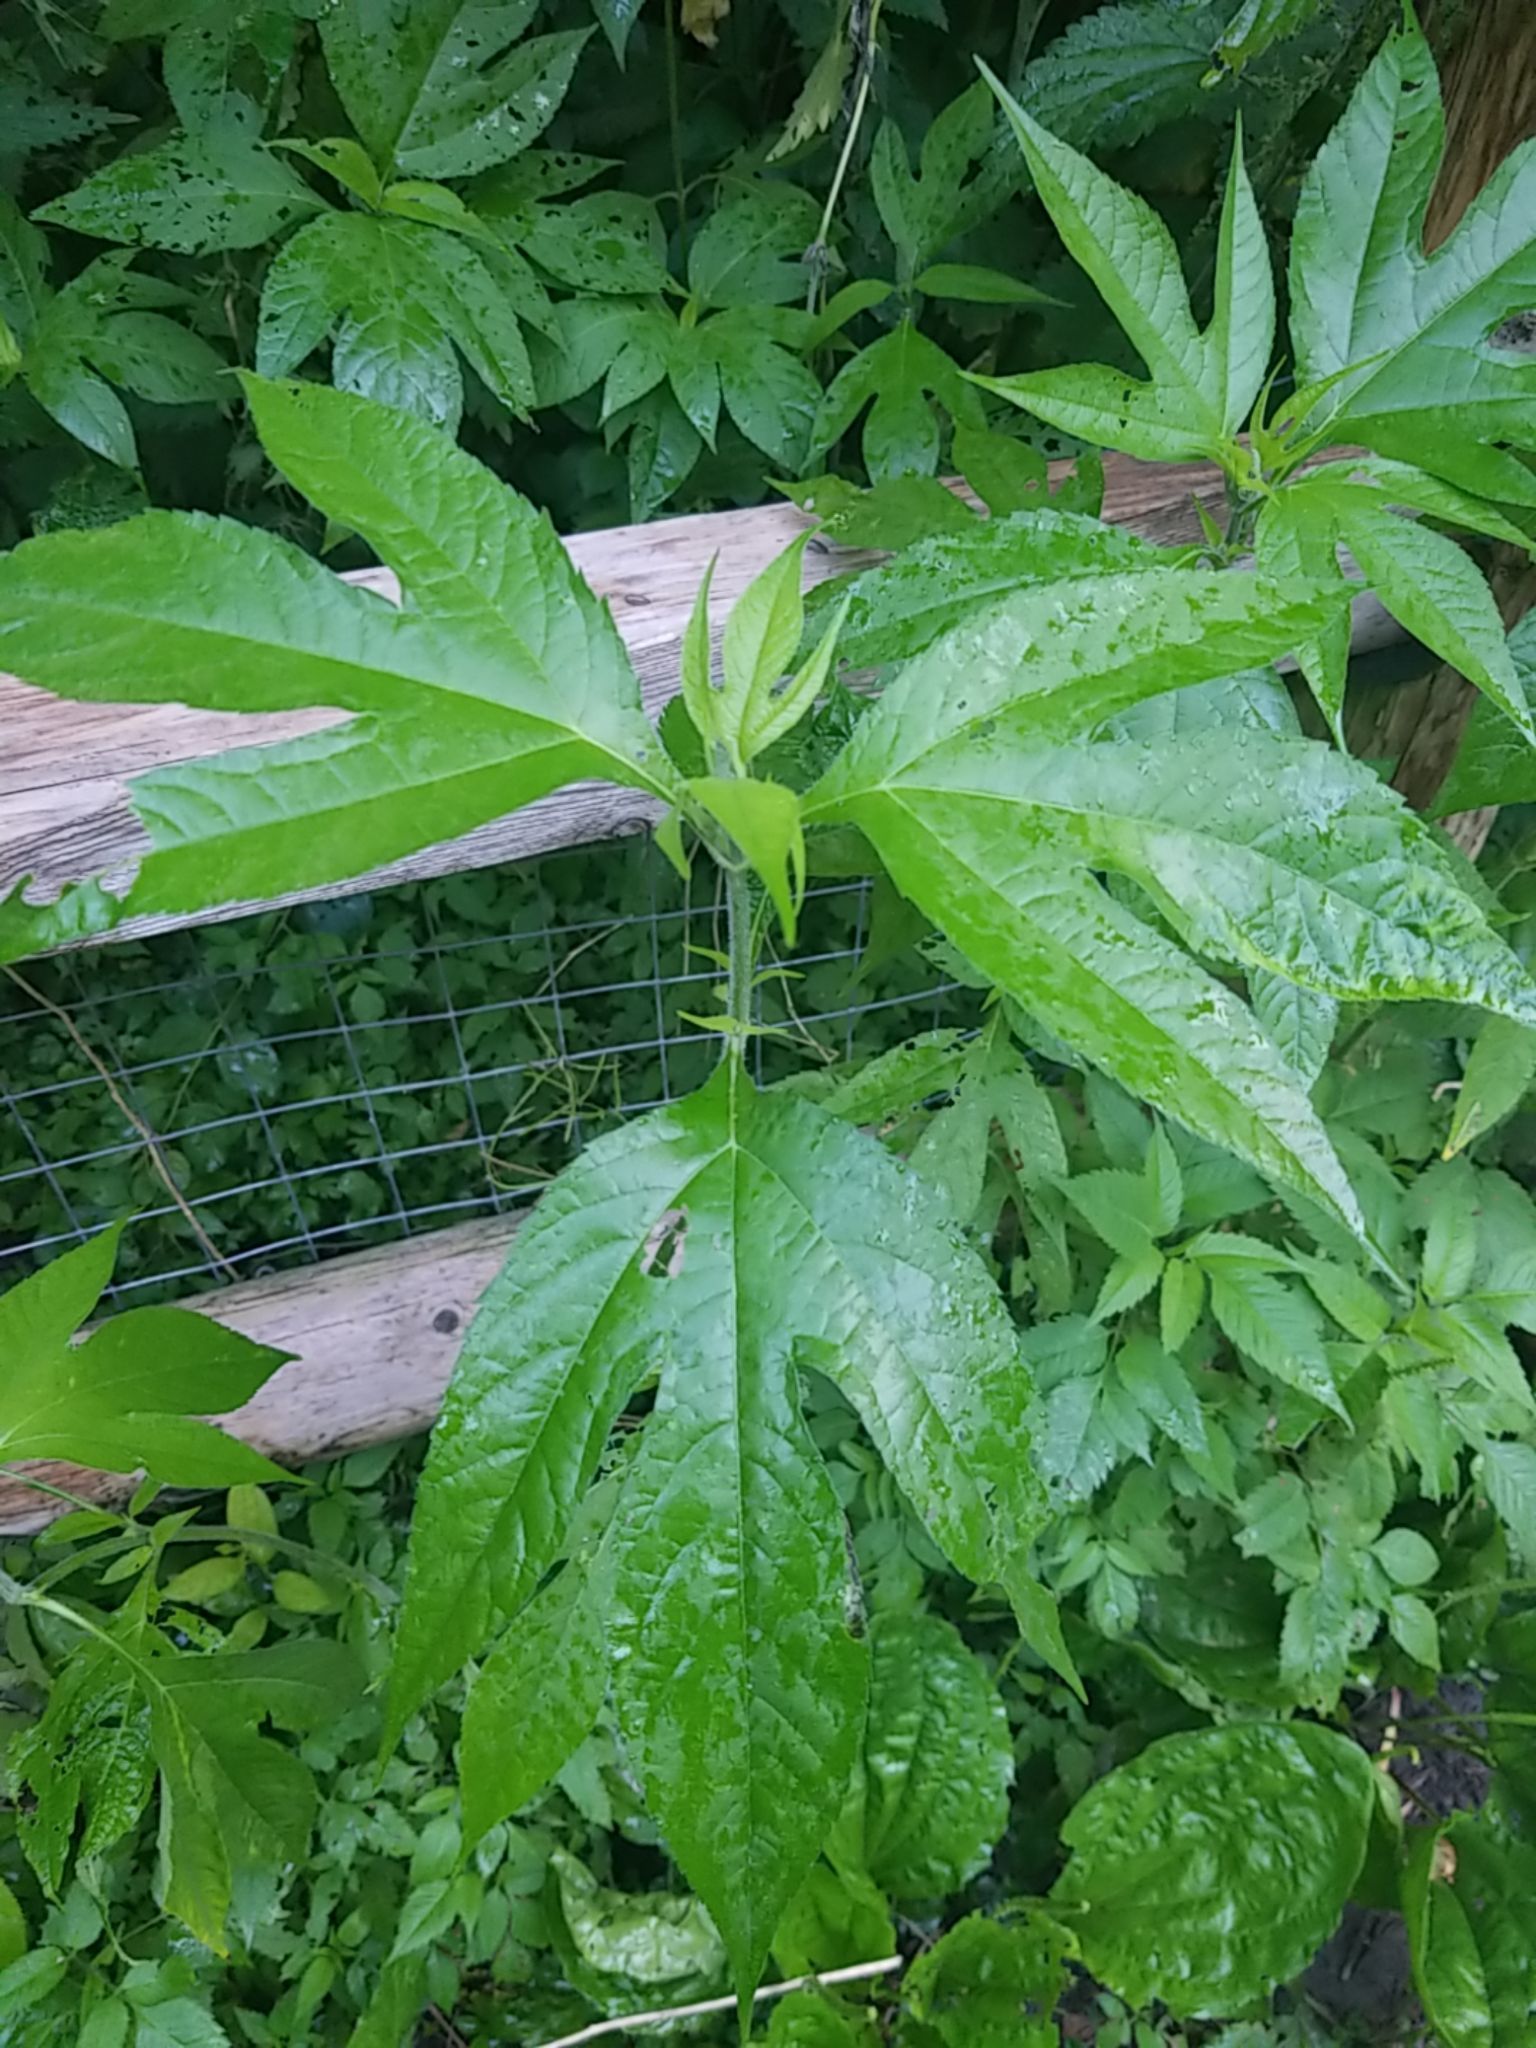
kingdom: Plantae
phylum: Tracheophyta
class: Magnoliopsida
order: Asterales
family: Asteraceae
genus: Ambrosia
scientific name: Ambrosia trifida
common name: Giant ragweed
